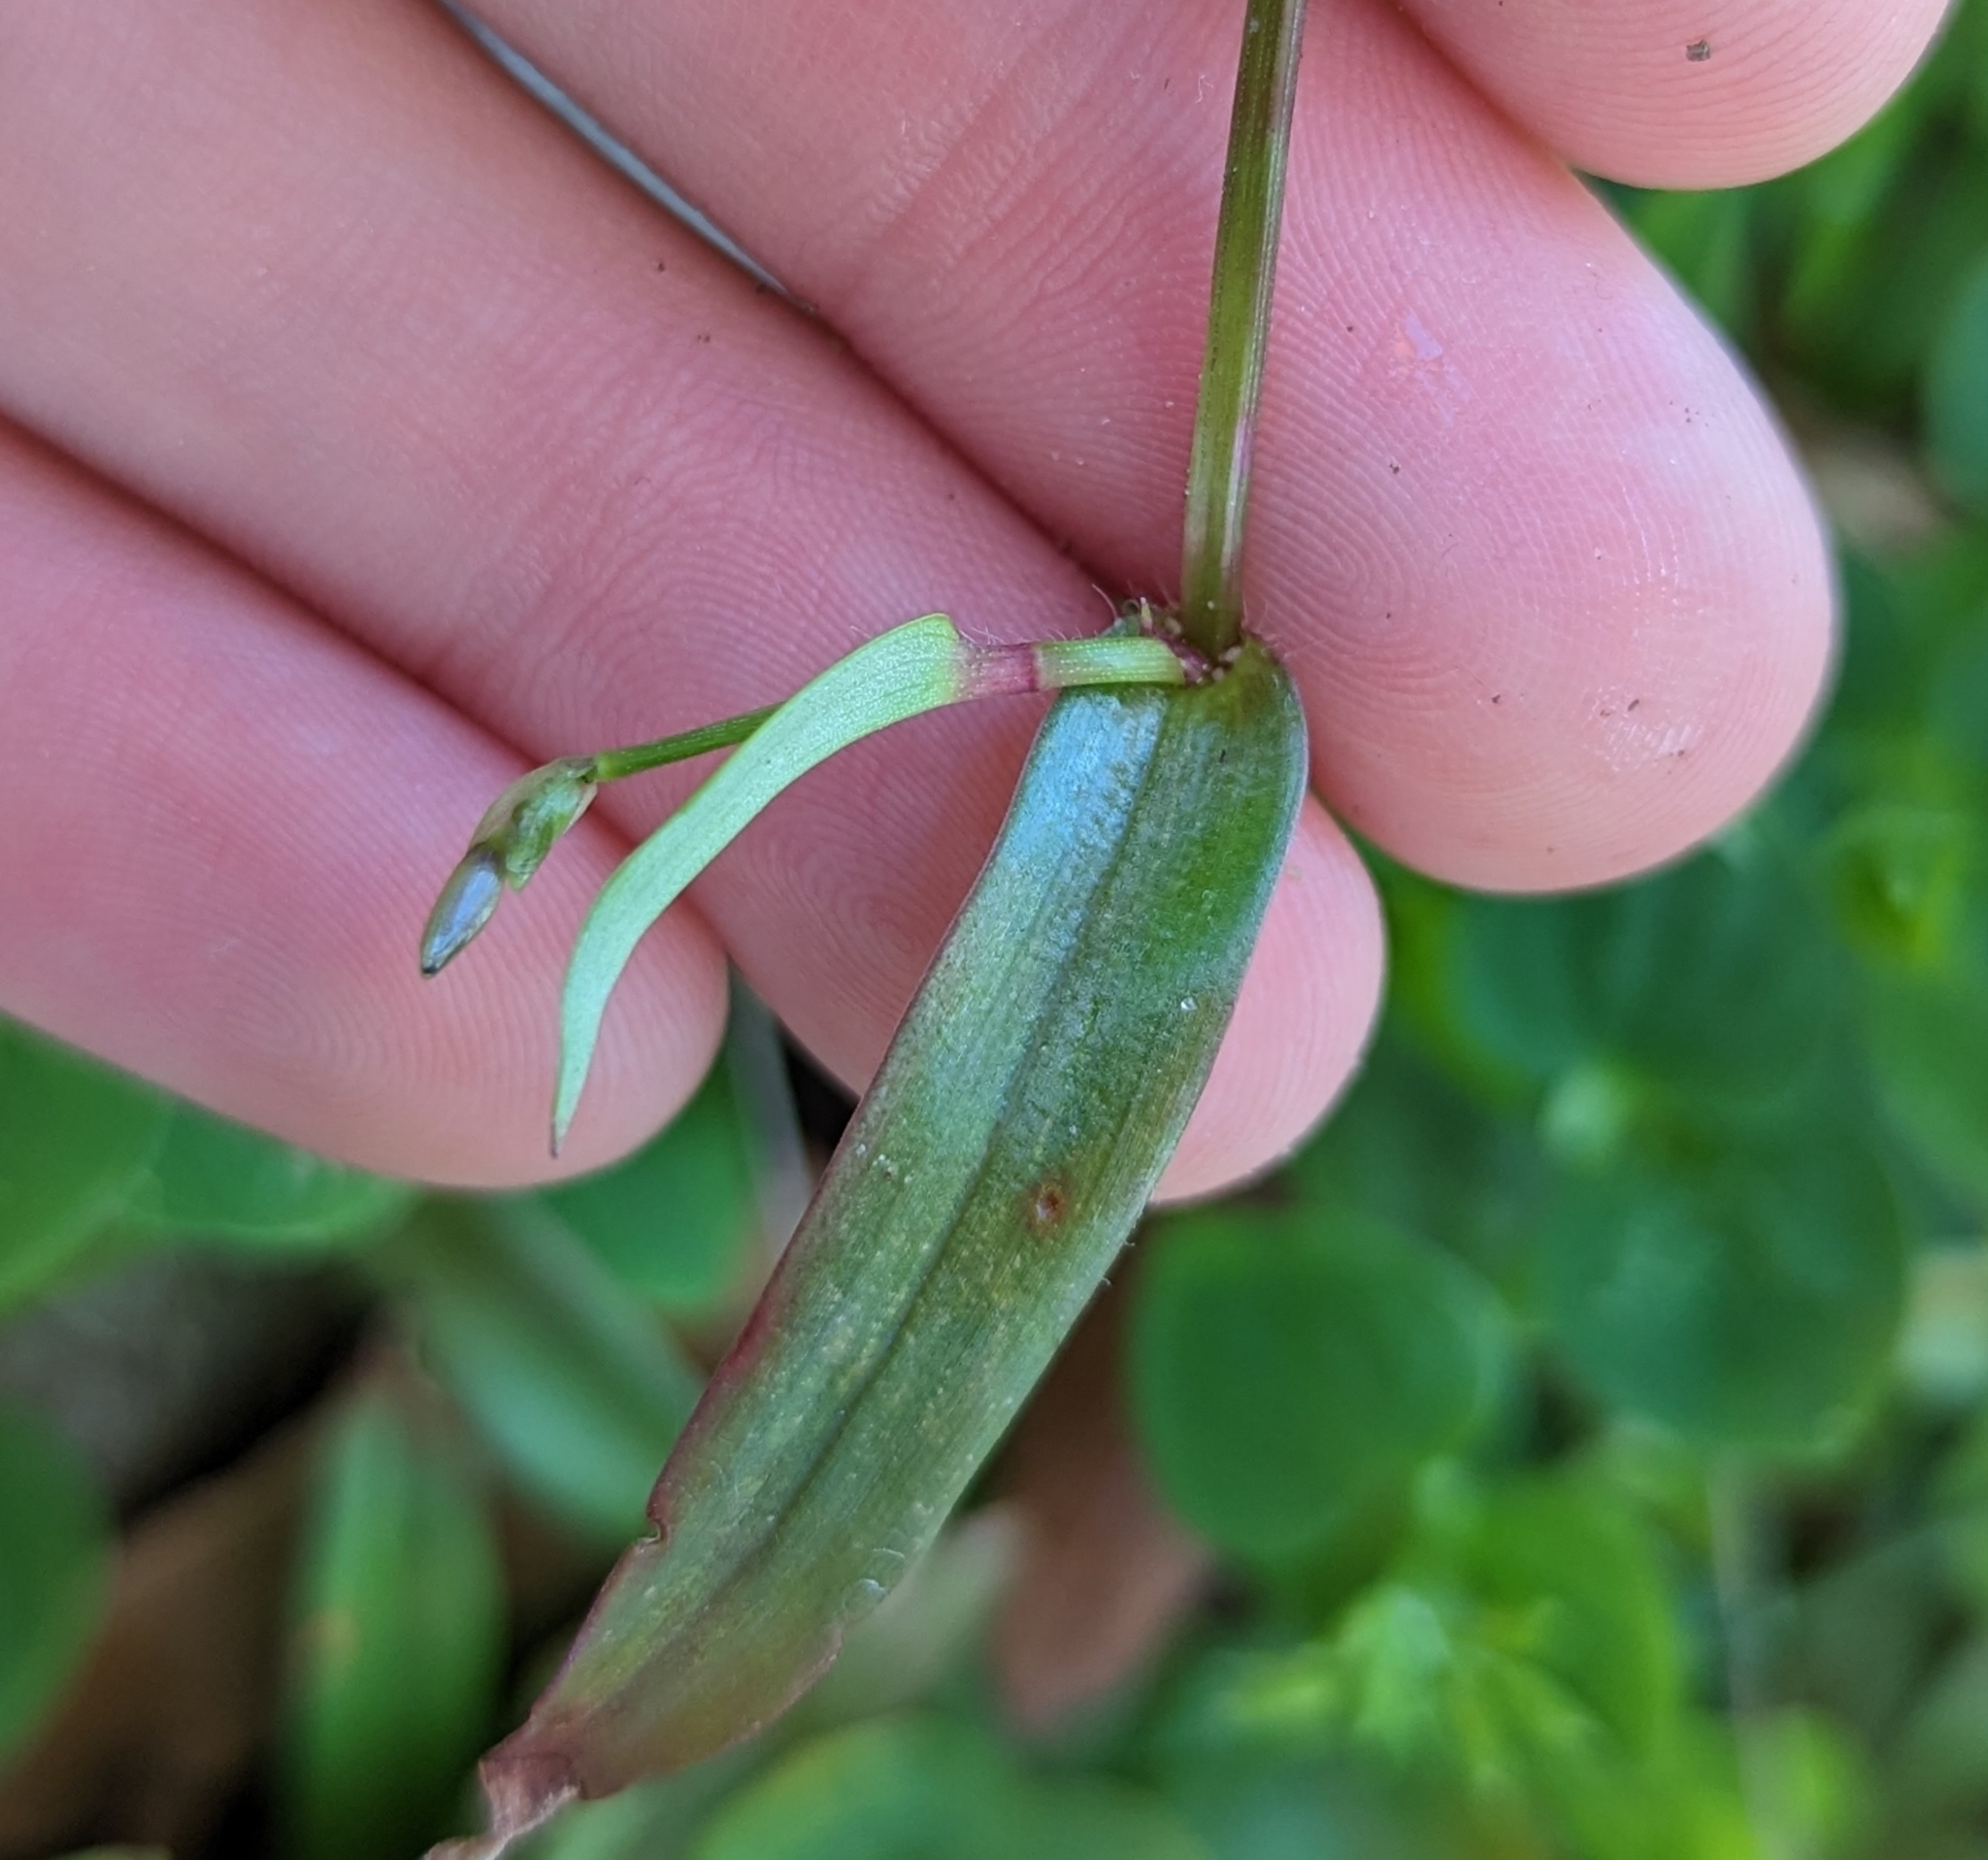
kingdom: Plantae
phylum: Tracheophyta
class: Liliopsida
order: Commelinales
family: Commelinaceae
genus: Murdannia
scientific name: Murdannia nudiflora
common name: Nakedstem dewflower
